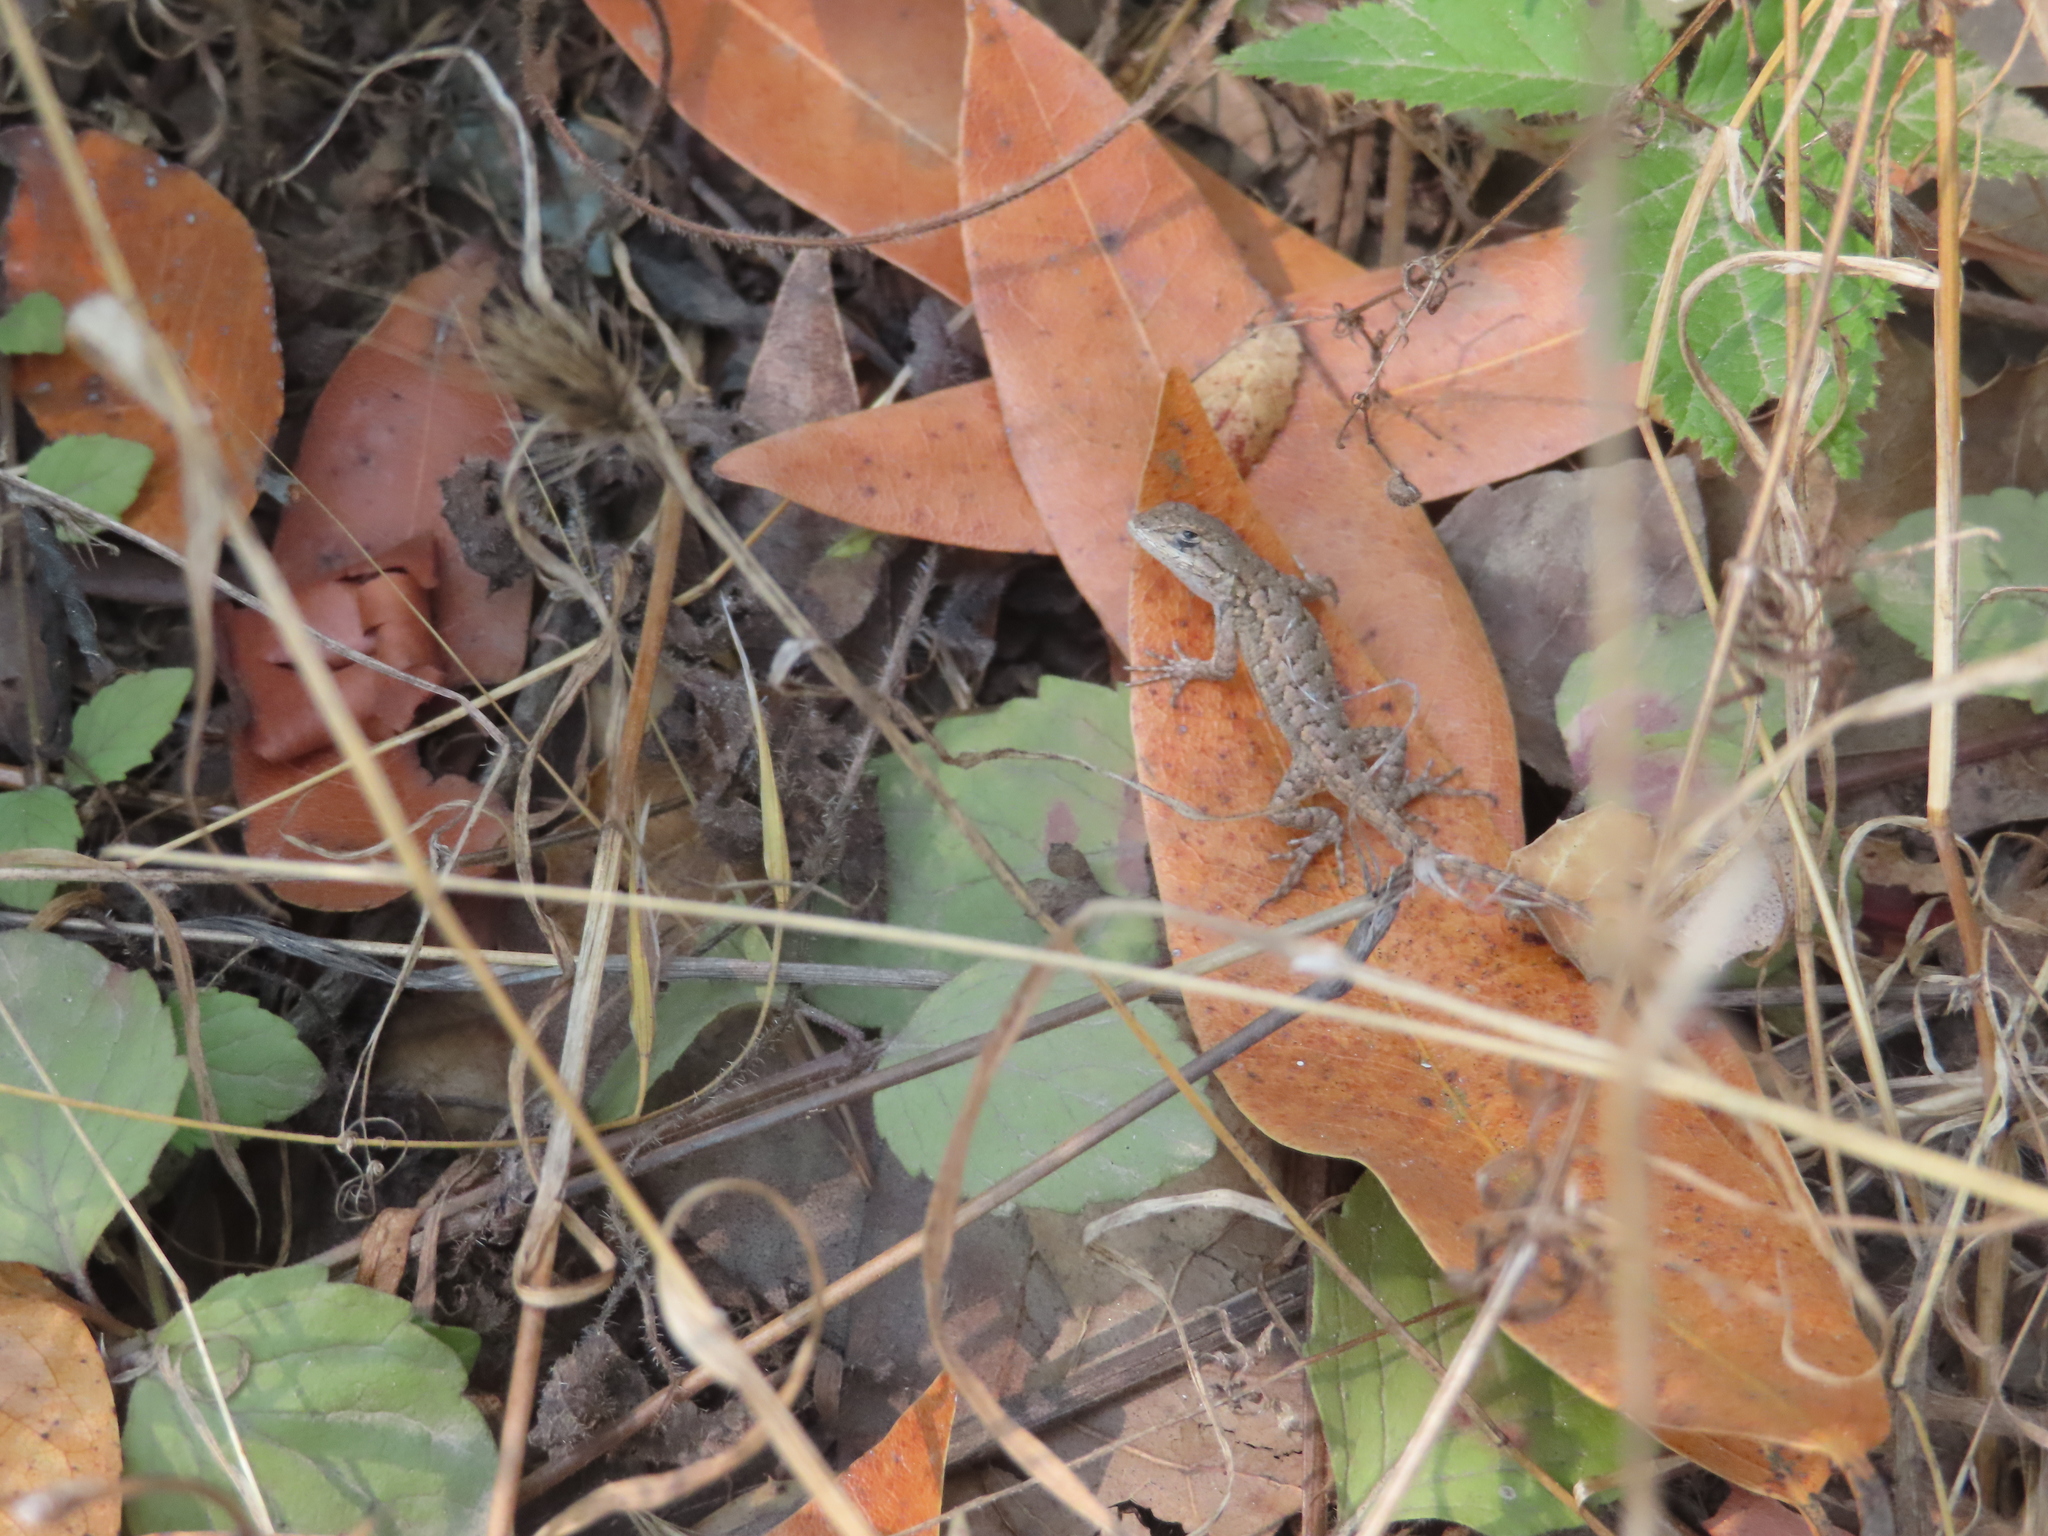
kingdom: Animalia
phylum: Chordata
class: Squamata
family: Phrynosomatidae
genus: Sceloporus
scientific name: Sceloporus occidentalis
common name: Western fence lizard
